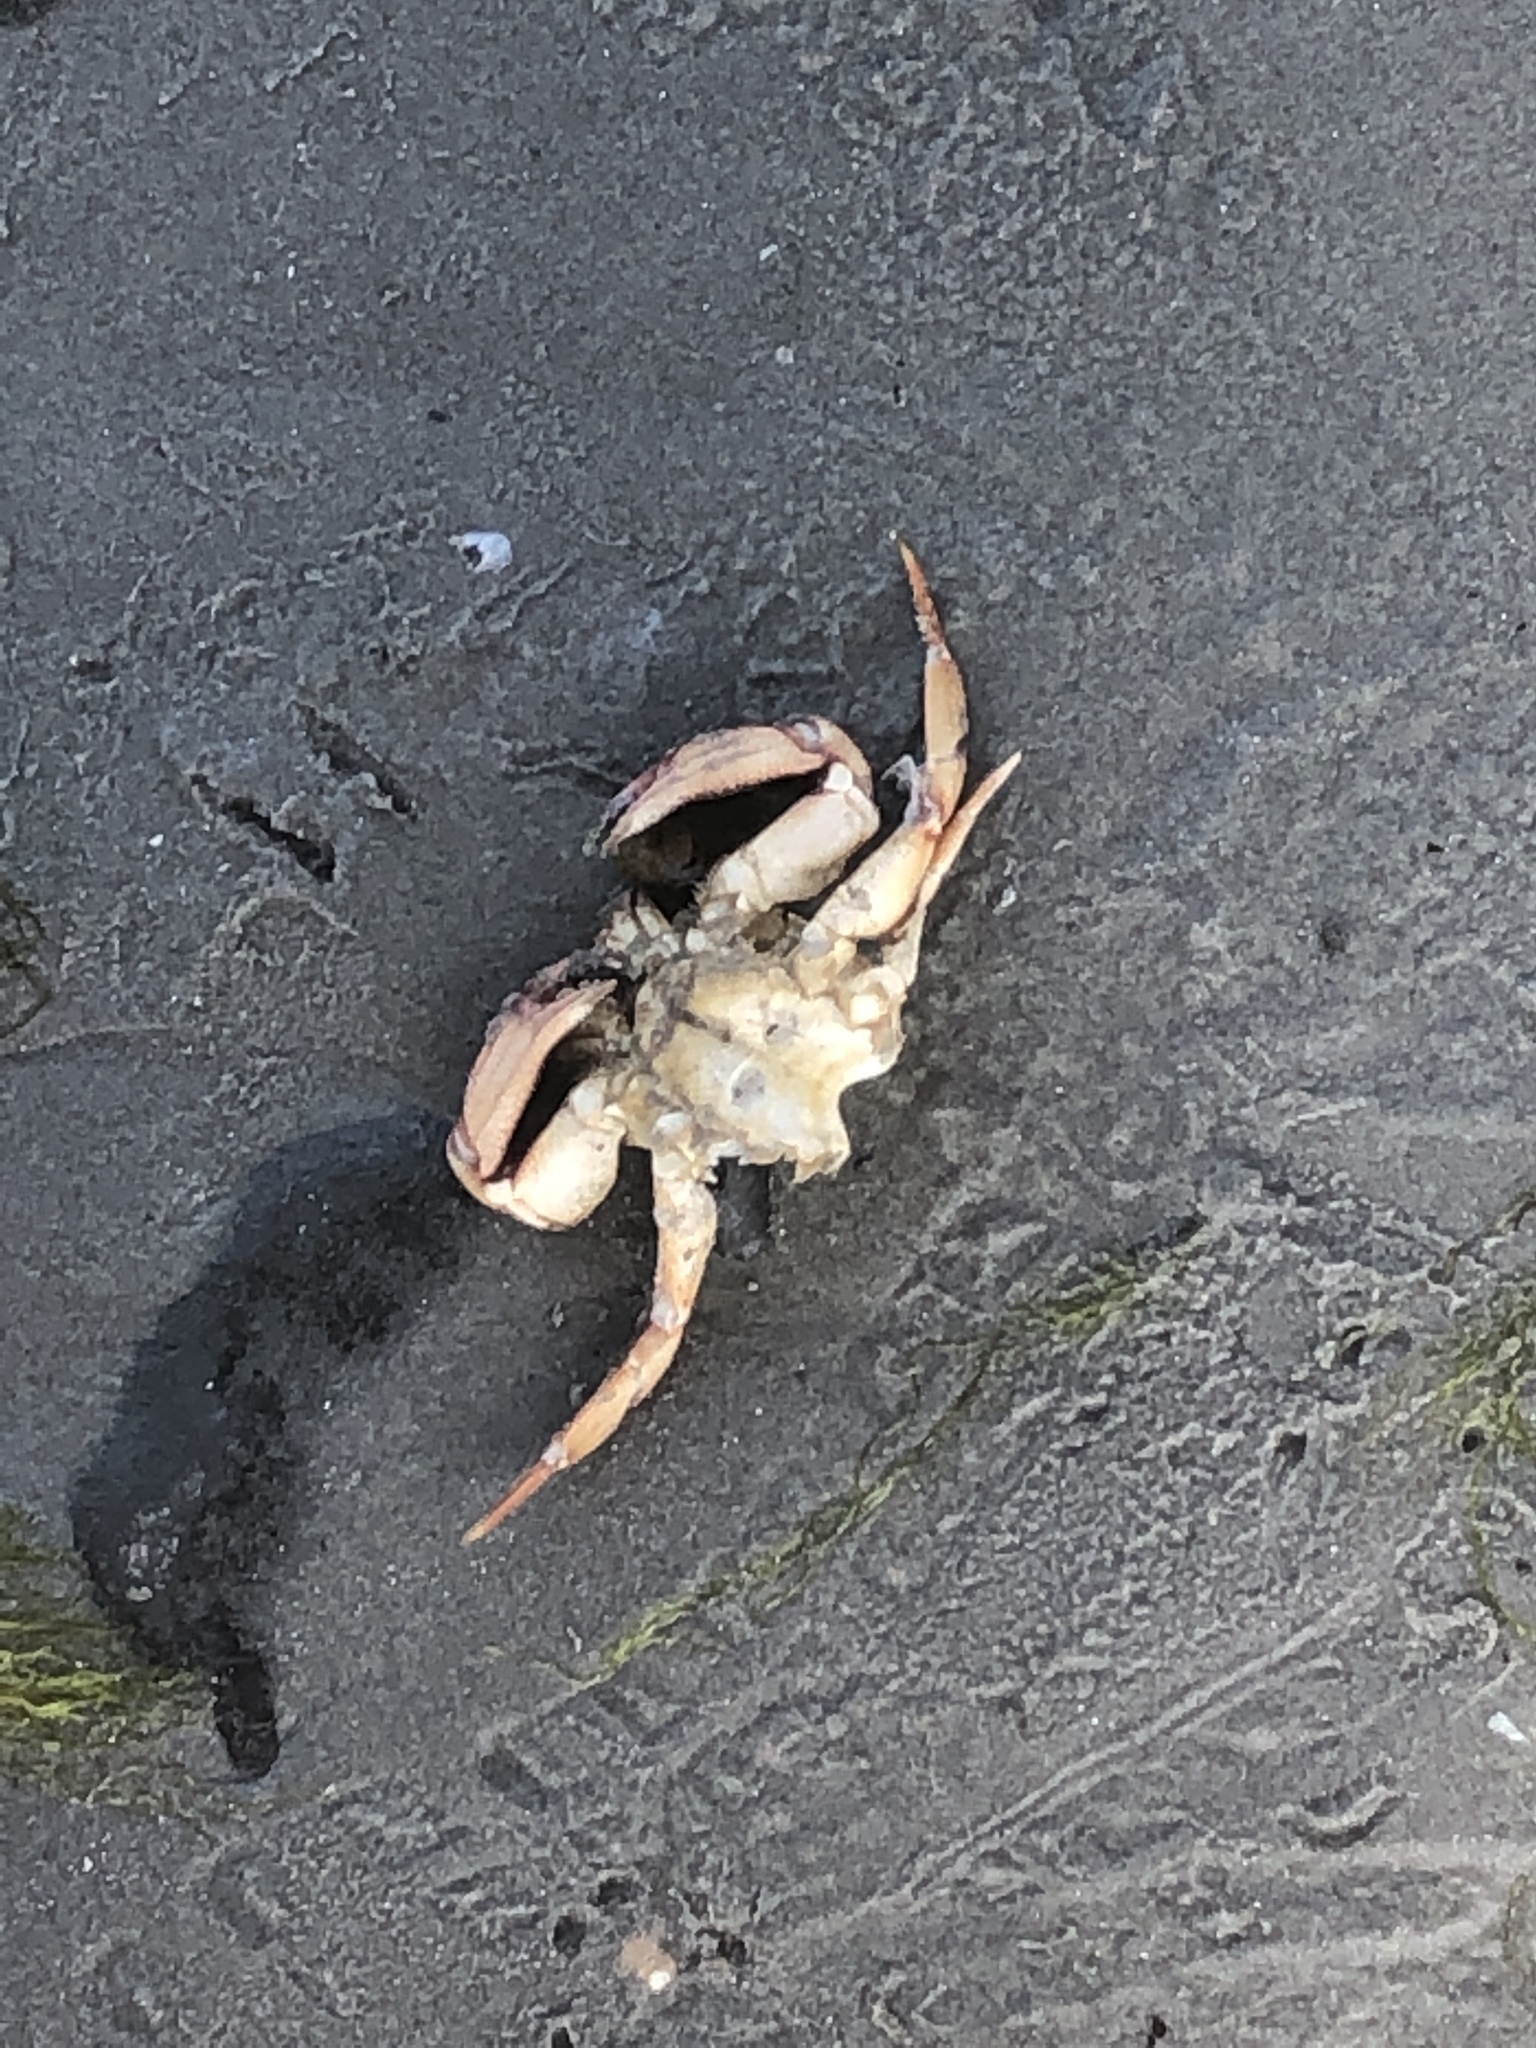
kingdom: Animalia
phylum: Arthropoda
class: Malacostraca
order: Decapoda
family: Cancridae
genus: Cancer
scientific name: Cancer irroratus
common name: Atlantic rock crab
